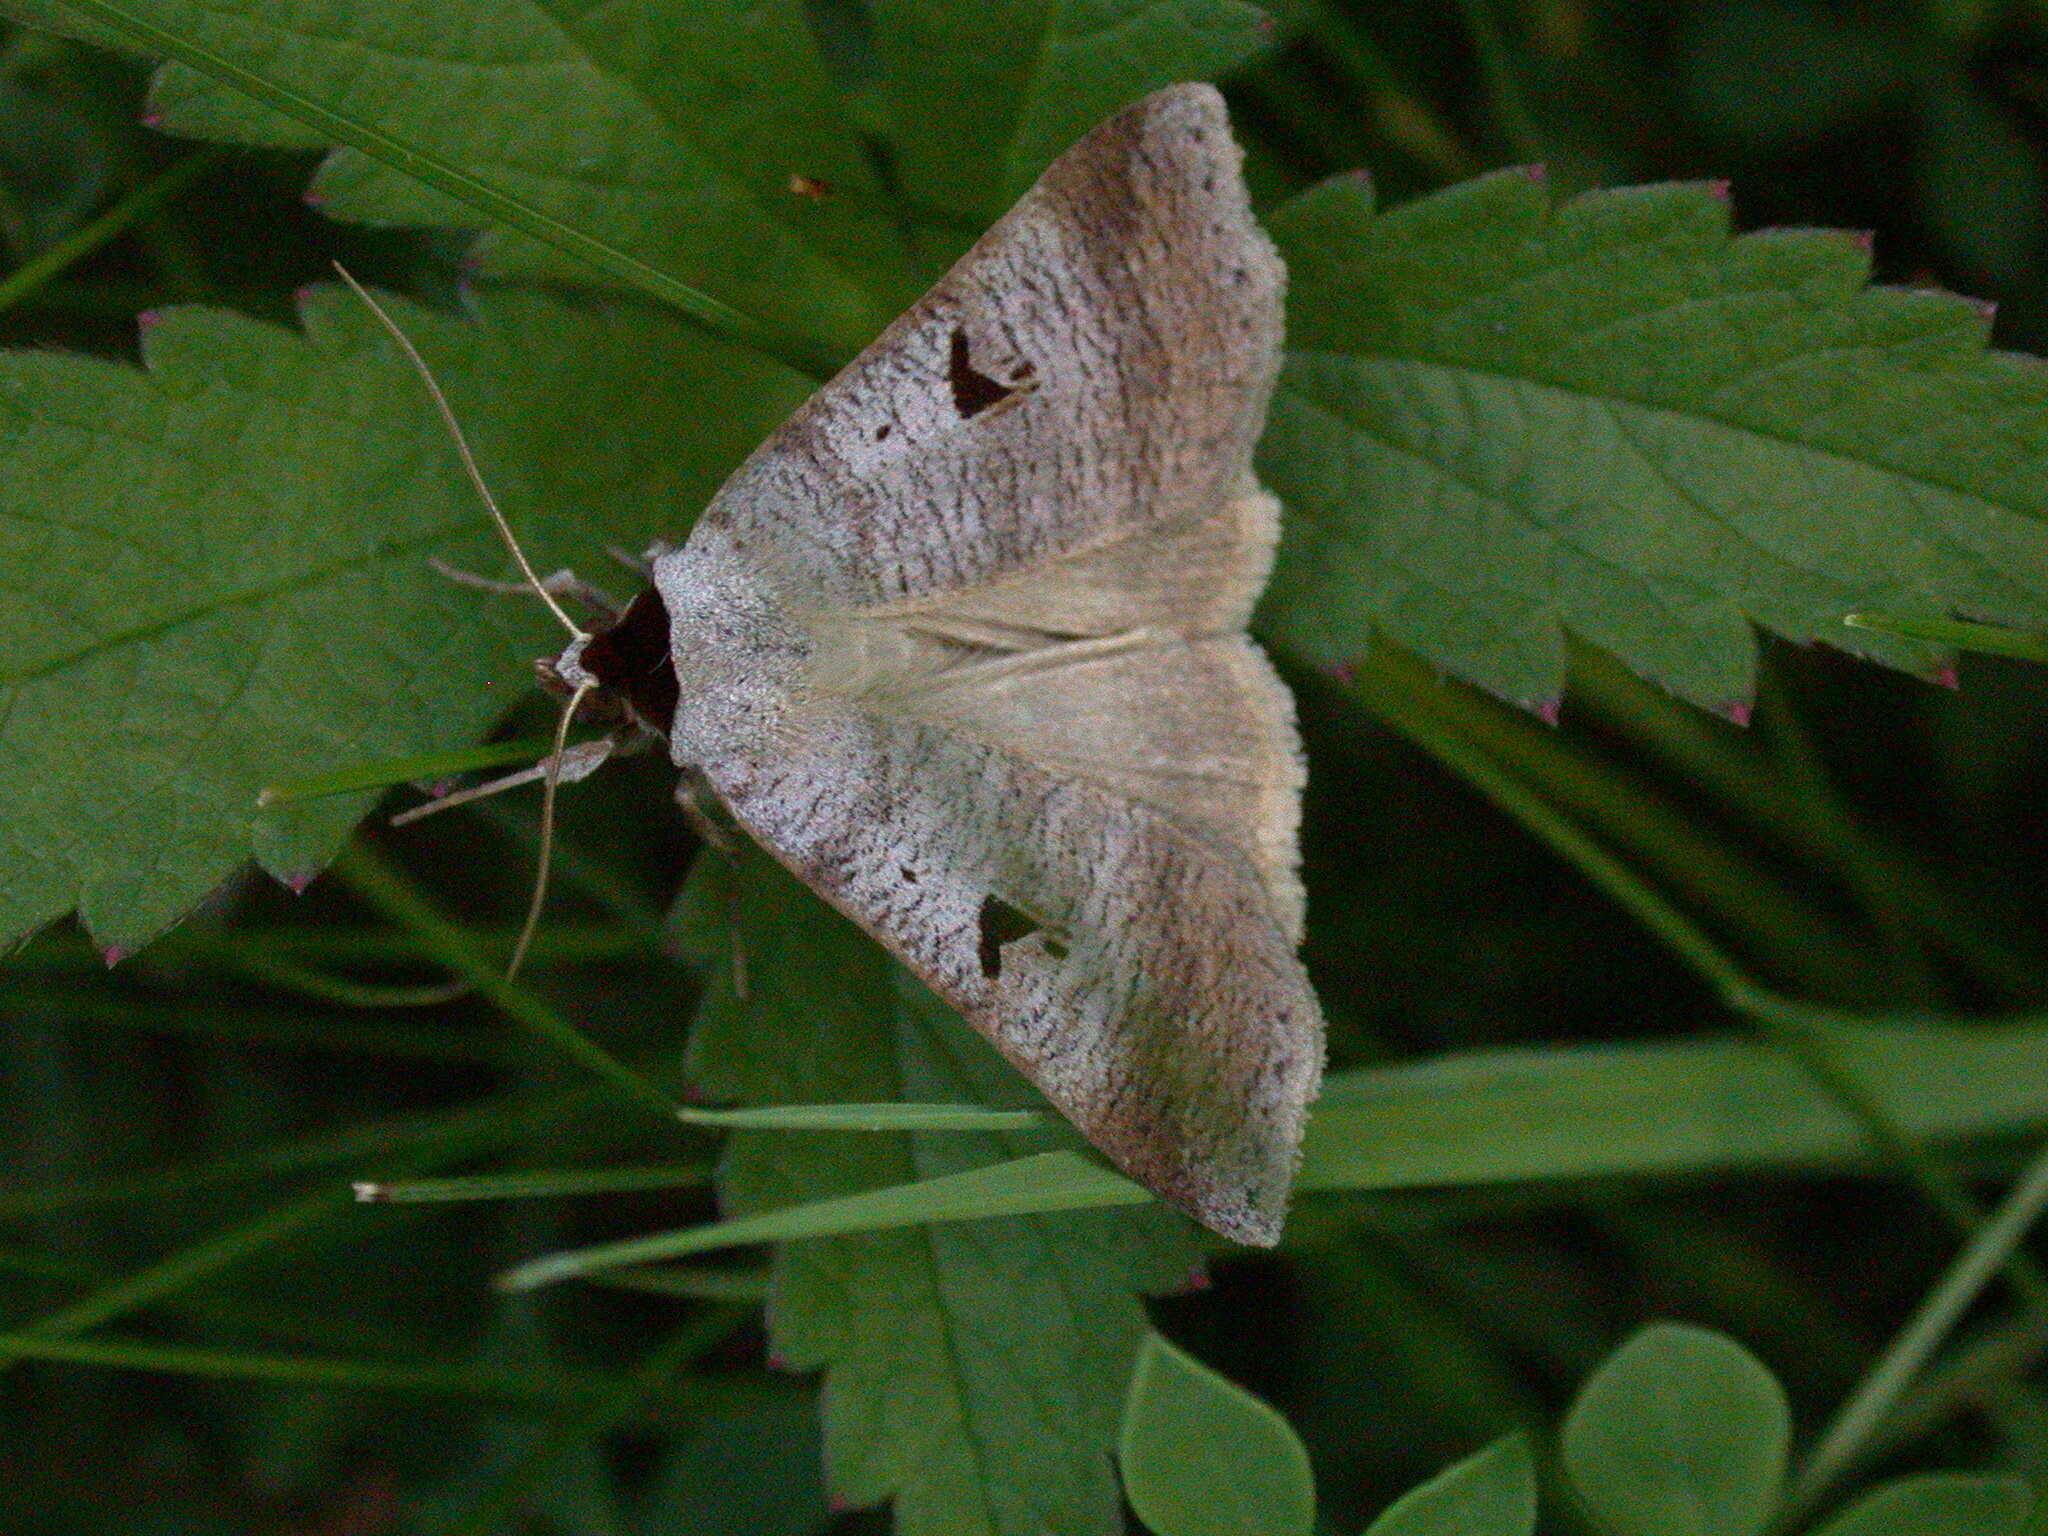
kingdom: Animalia
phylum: Arthropoda
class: Insecta
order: Lepidoptera
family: Erebidae
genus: Lygephila
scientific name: Lygephila pastinum
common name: Blackneck
